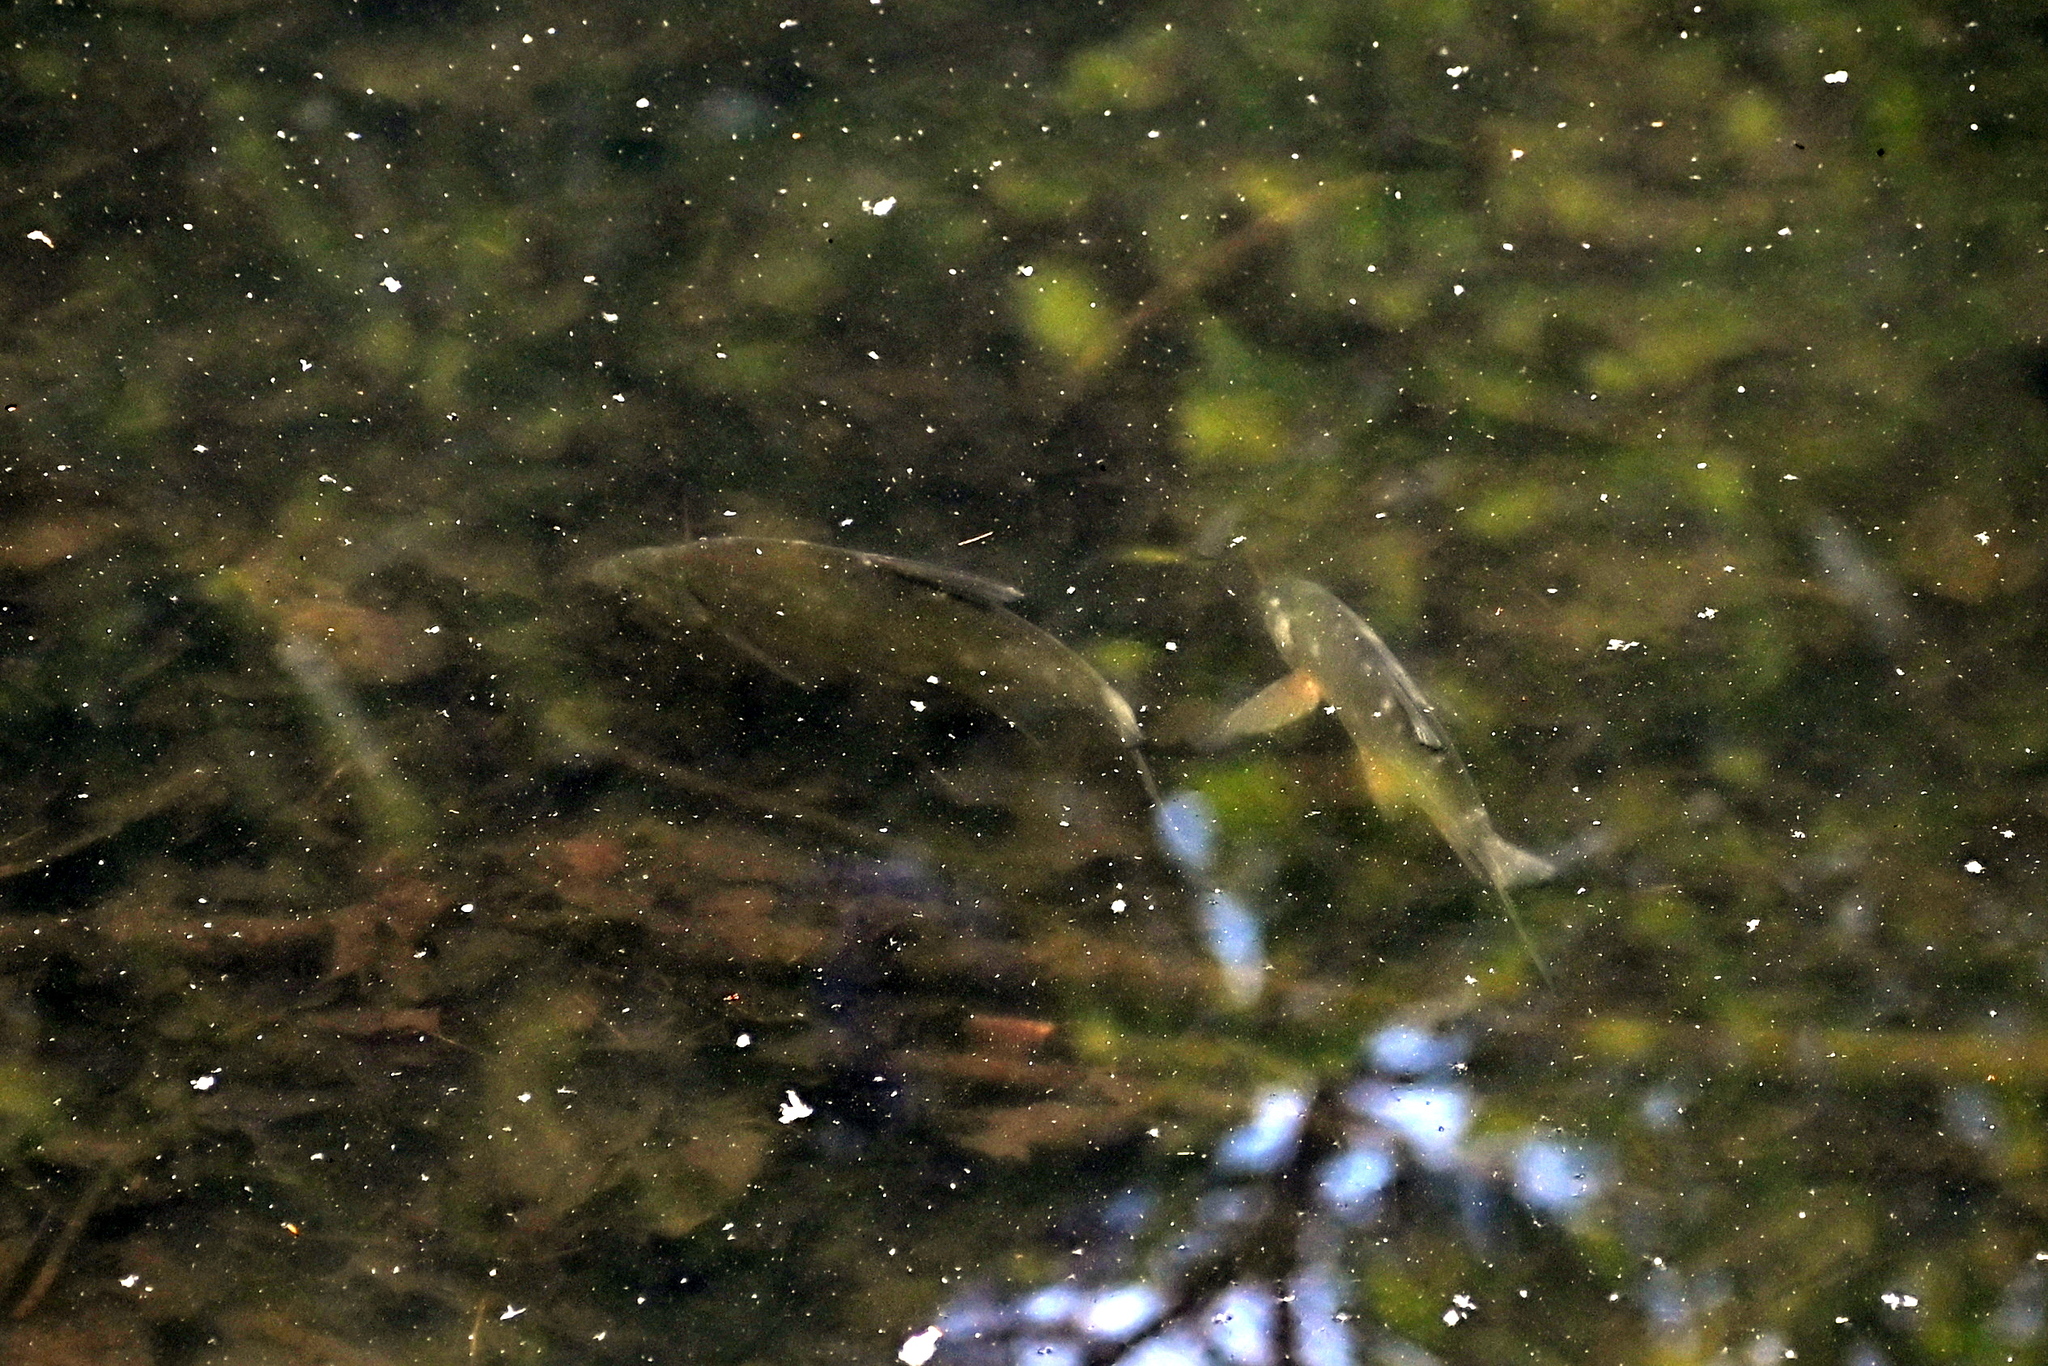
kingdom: Animalia
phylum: Chordata
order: Cypriniformes
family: Cyprinidae
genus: Abramis
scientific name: Abramis brama
